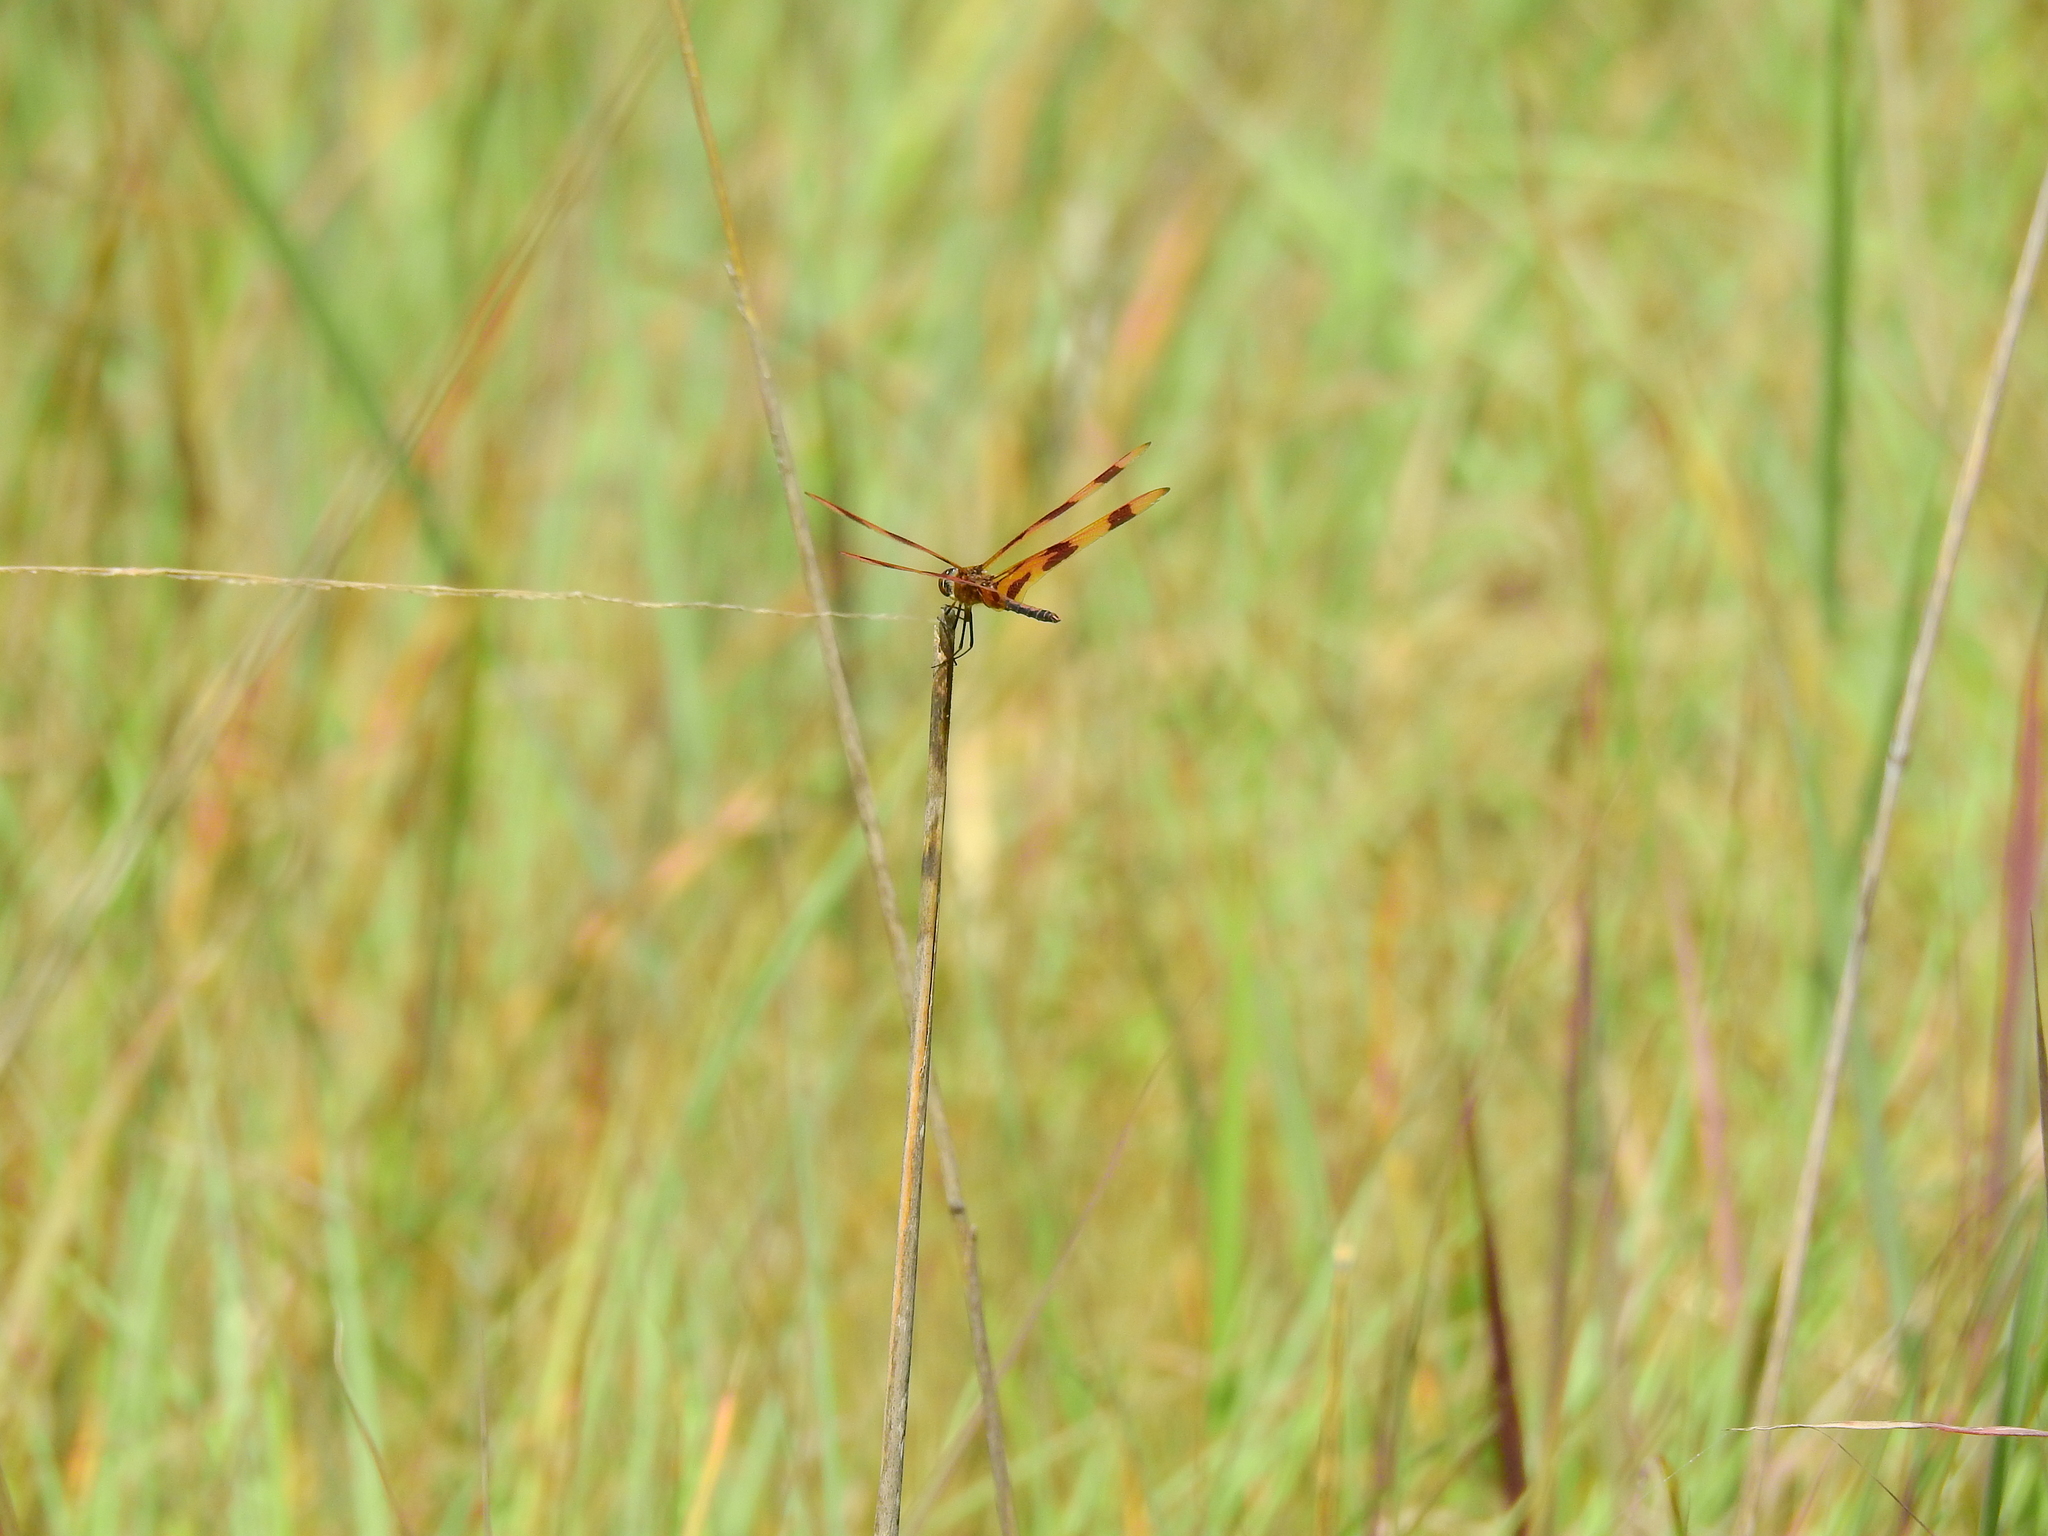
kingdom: Animalia
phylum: Arthropoda
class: Insecta
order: Odonata
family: Libellulidae
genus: Celithemis
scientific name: Celithemis eponina
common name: Halloween pennant
